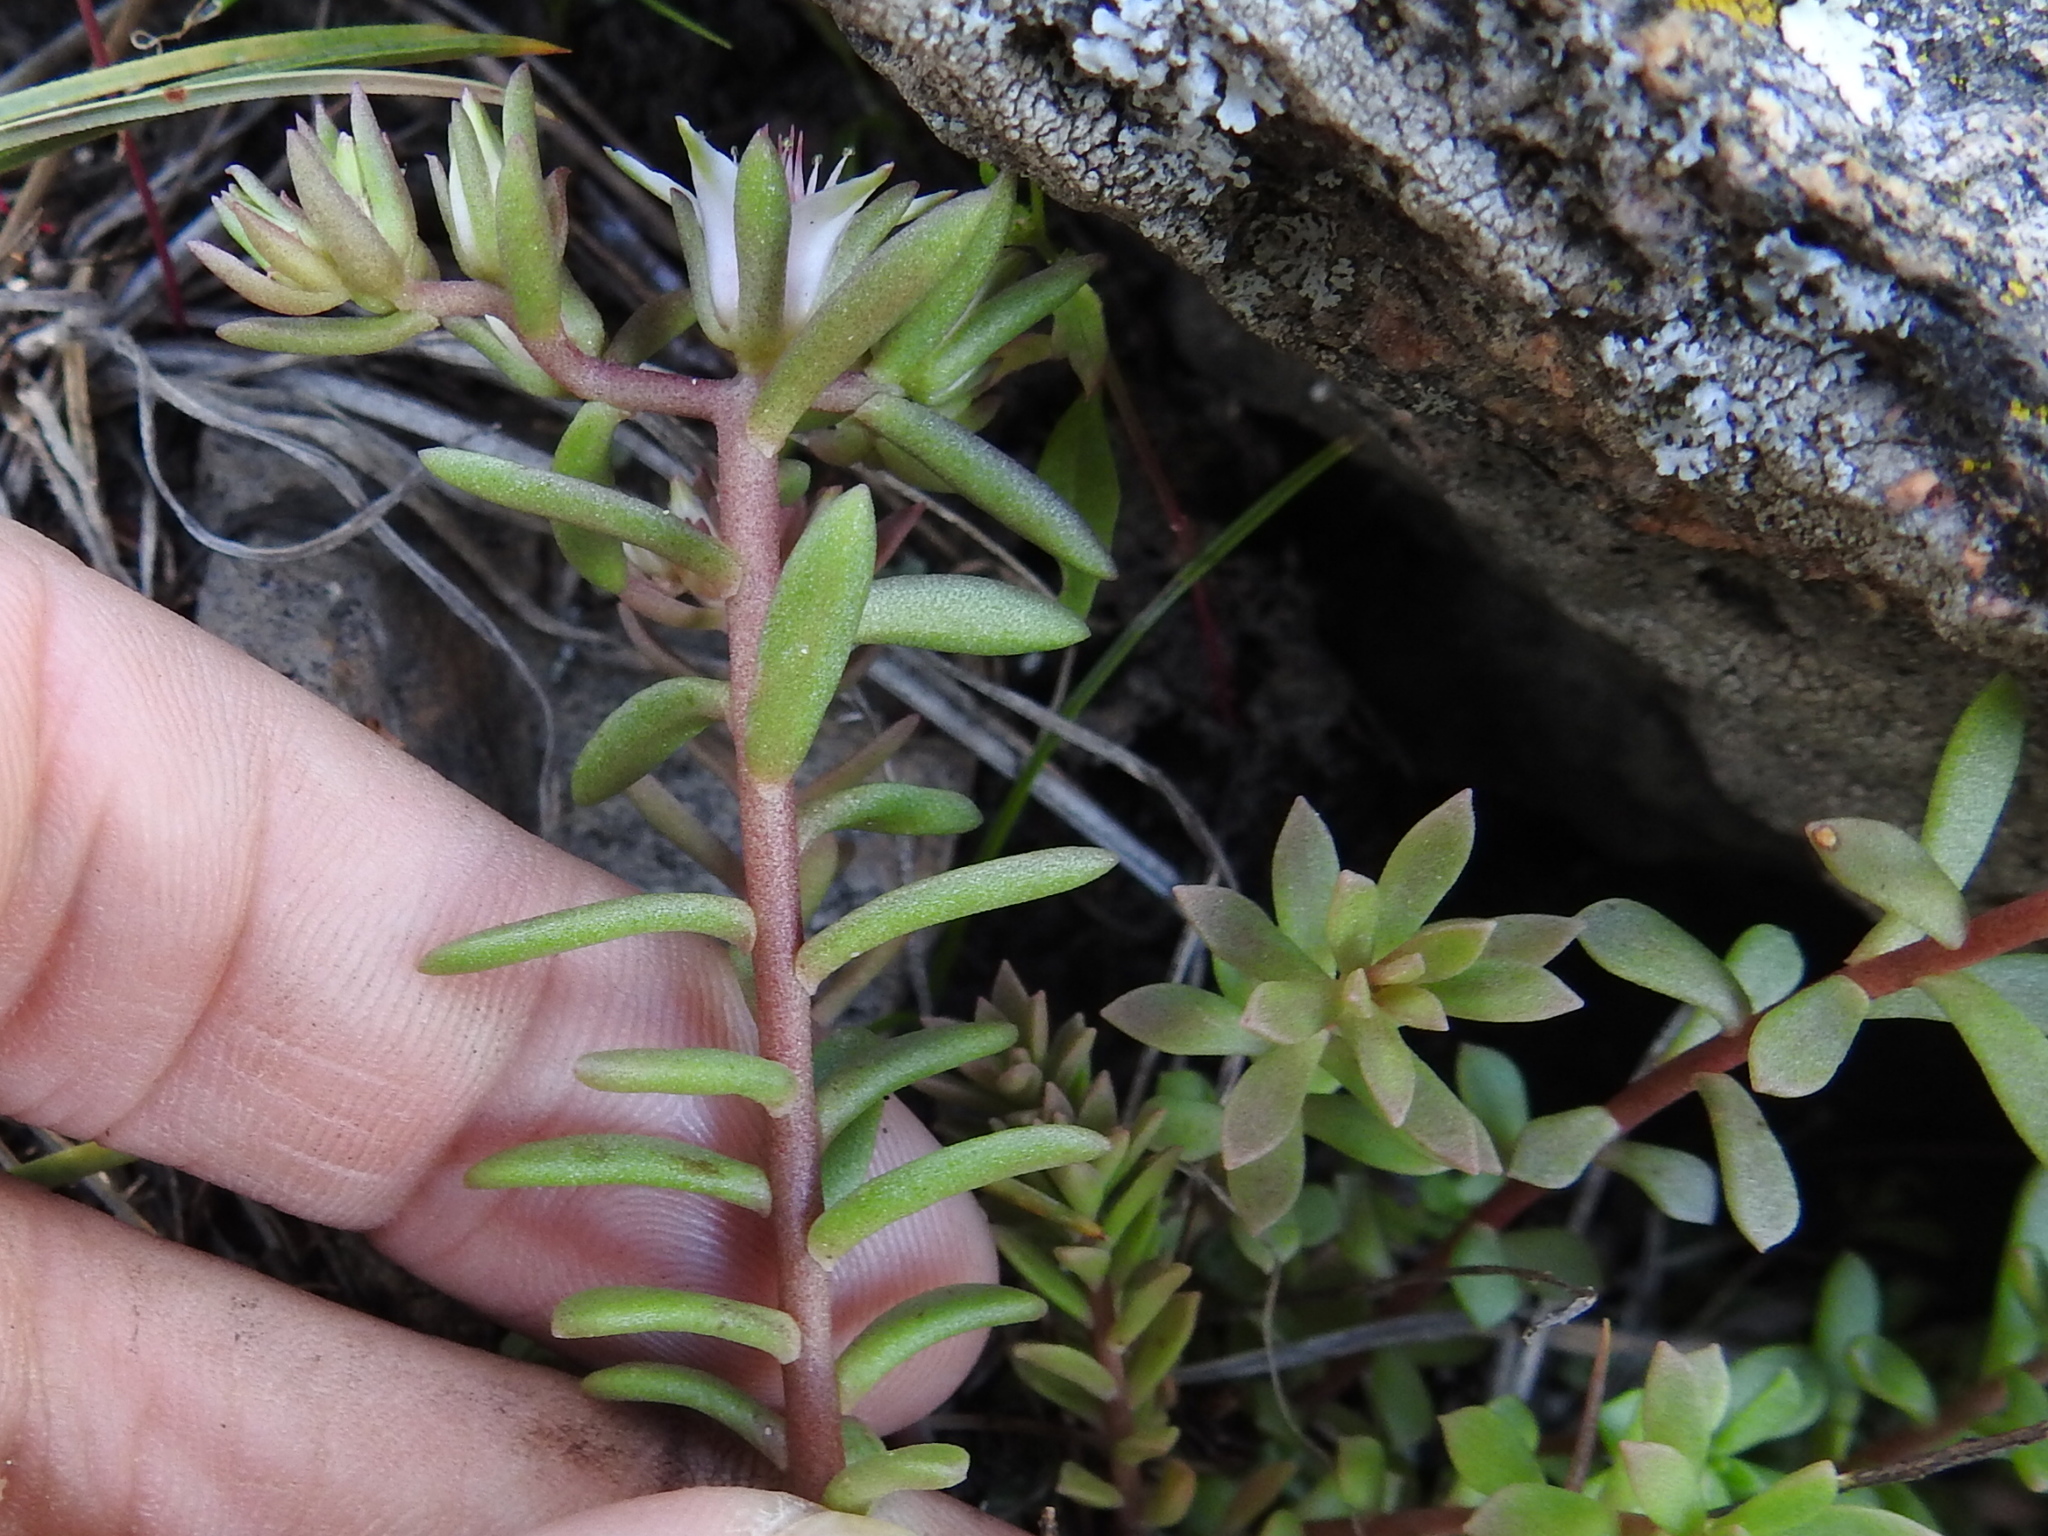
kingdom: Plantae
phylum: Tracheophyta
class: Magnoliopsida
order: Saxifragales
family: Crassulaceae
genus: Sedum
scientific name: Sedum wrightii
